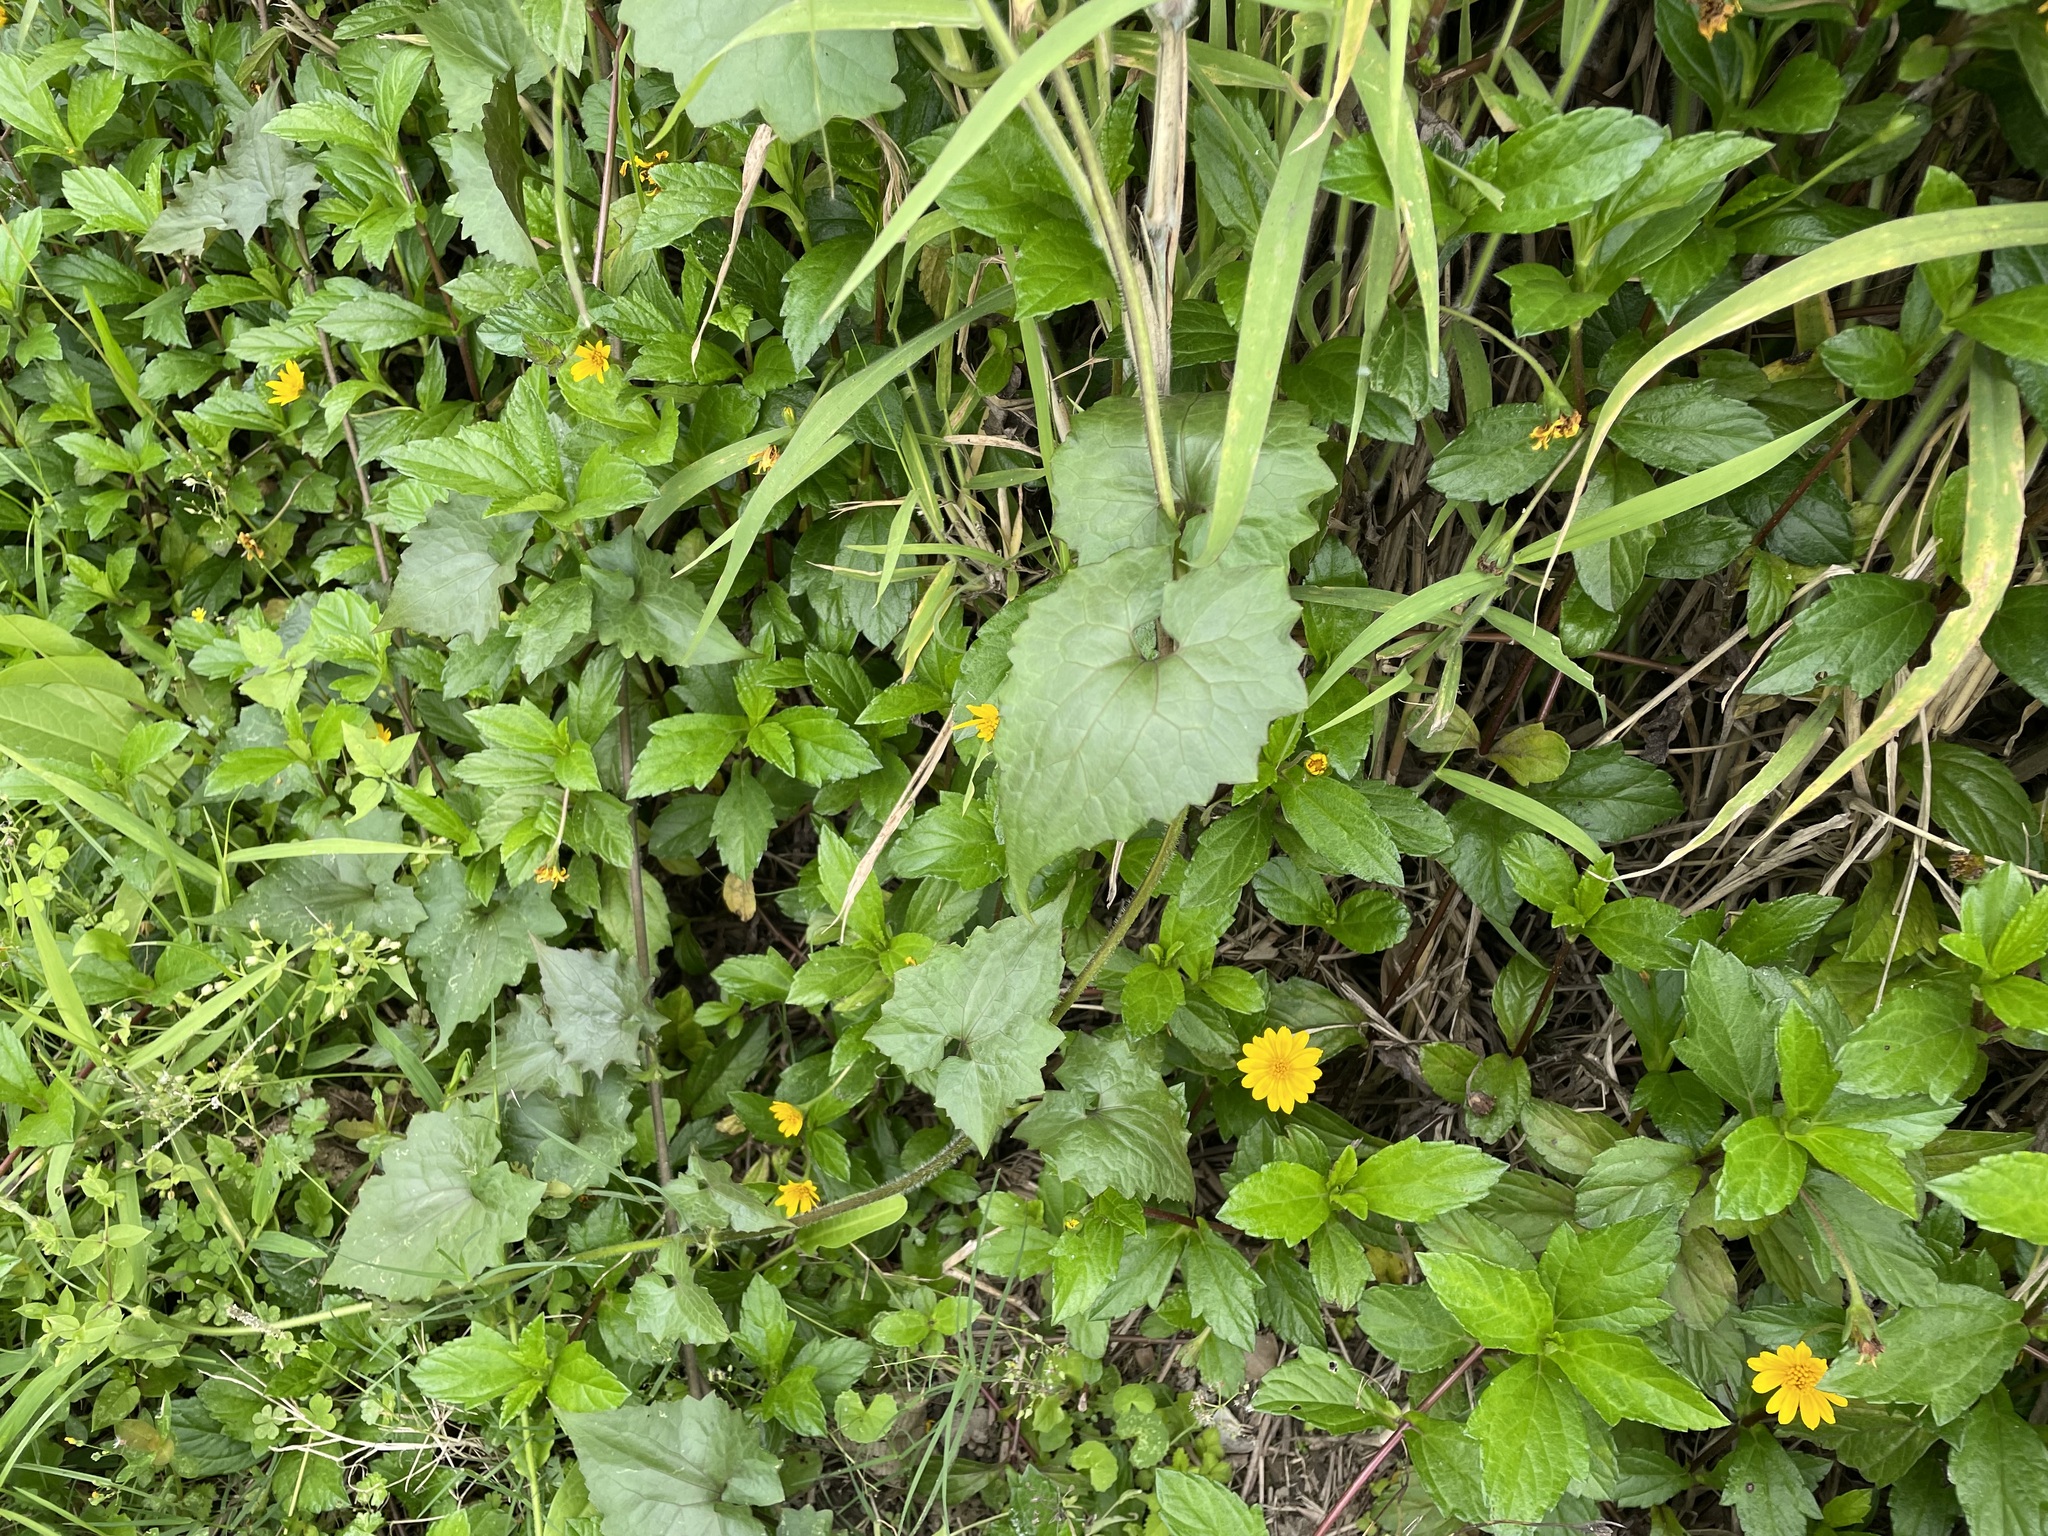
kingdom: Plantae
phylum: Tracheophyta
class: Magnoliopsida
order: Asterales
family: Asteraceae
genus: Mikania
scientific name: Mikania micrantha
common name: Mile-a-minute
